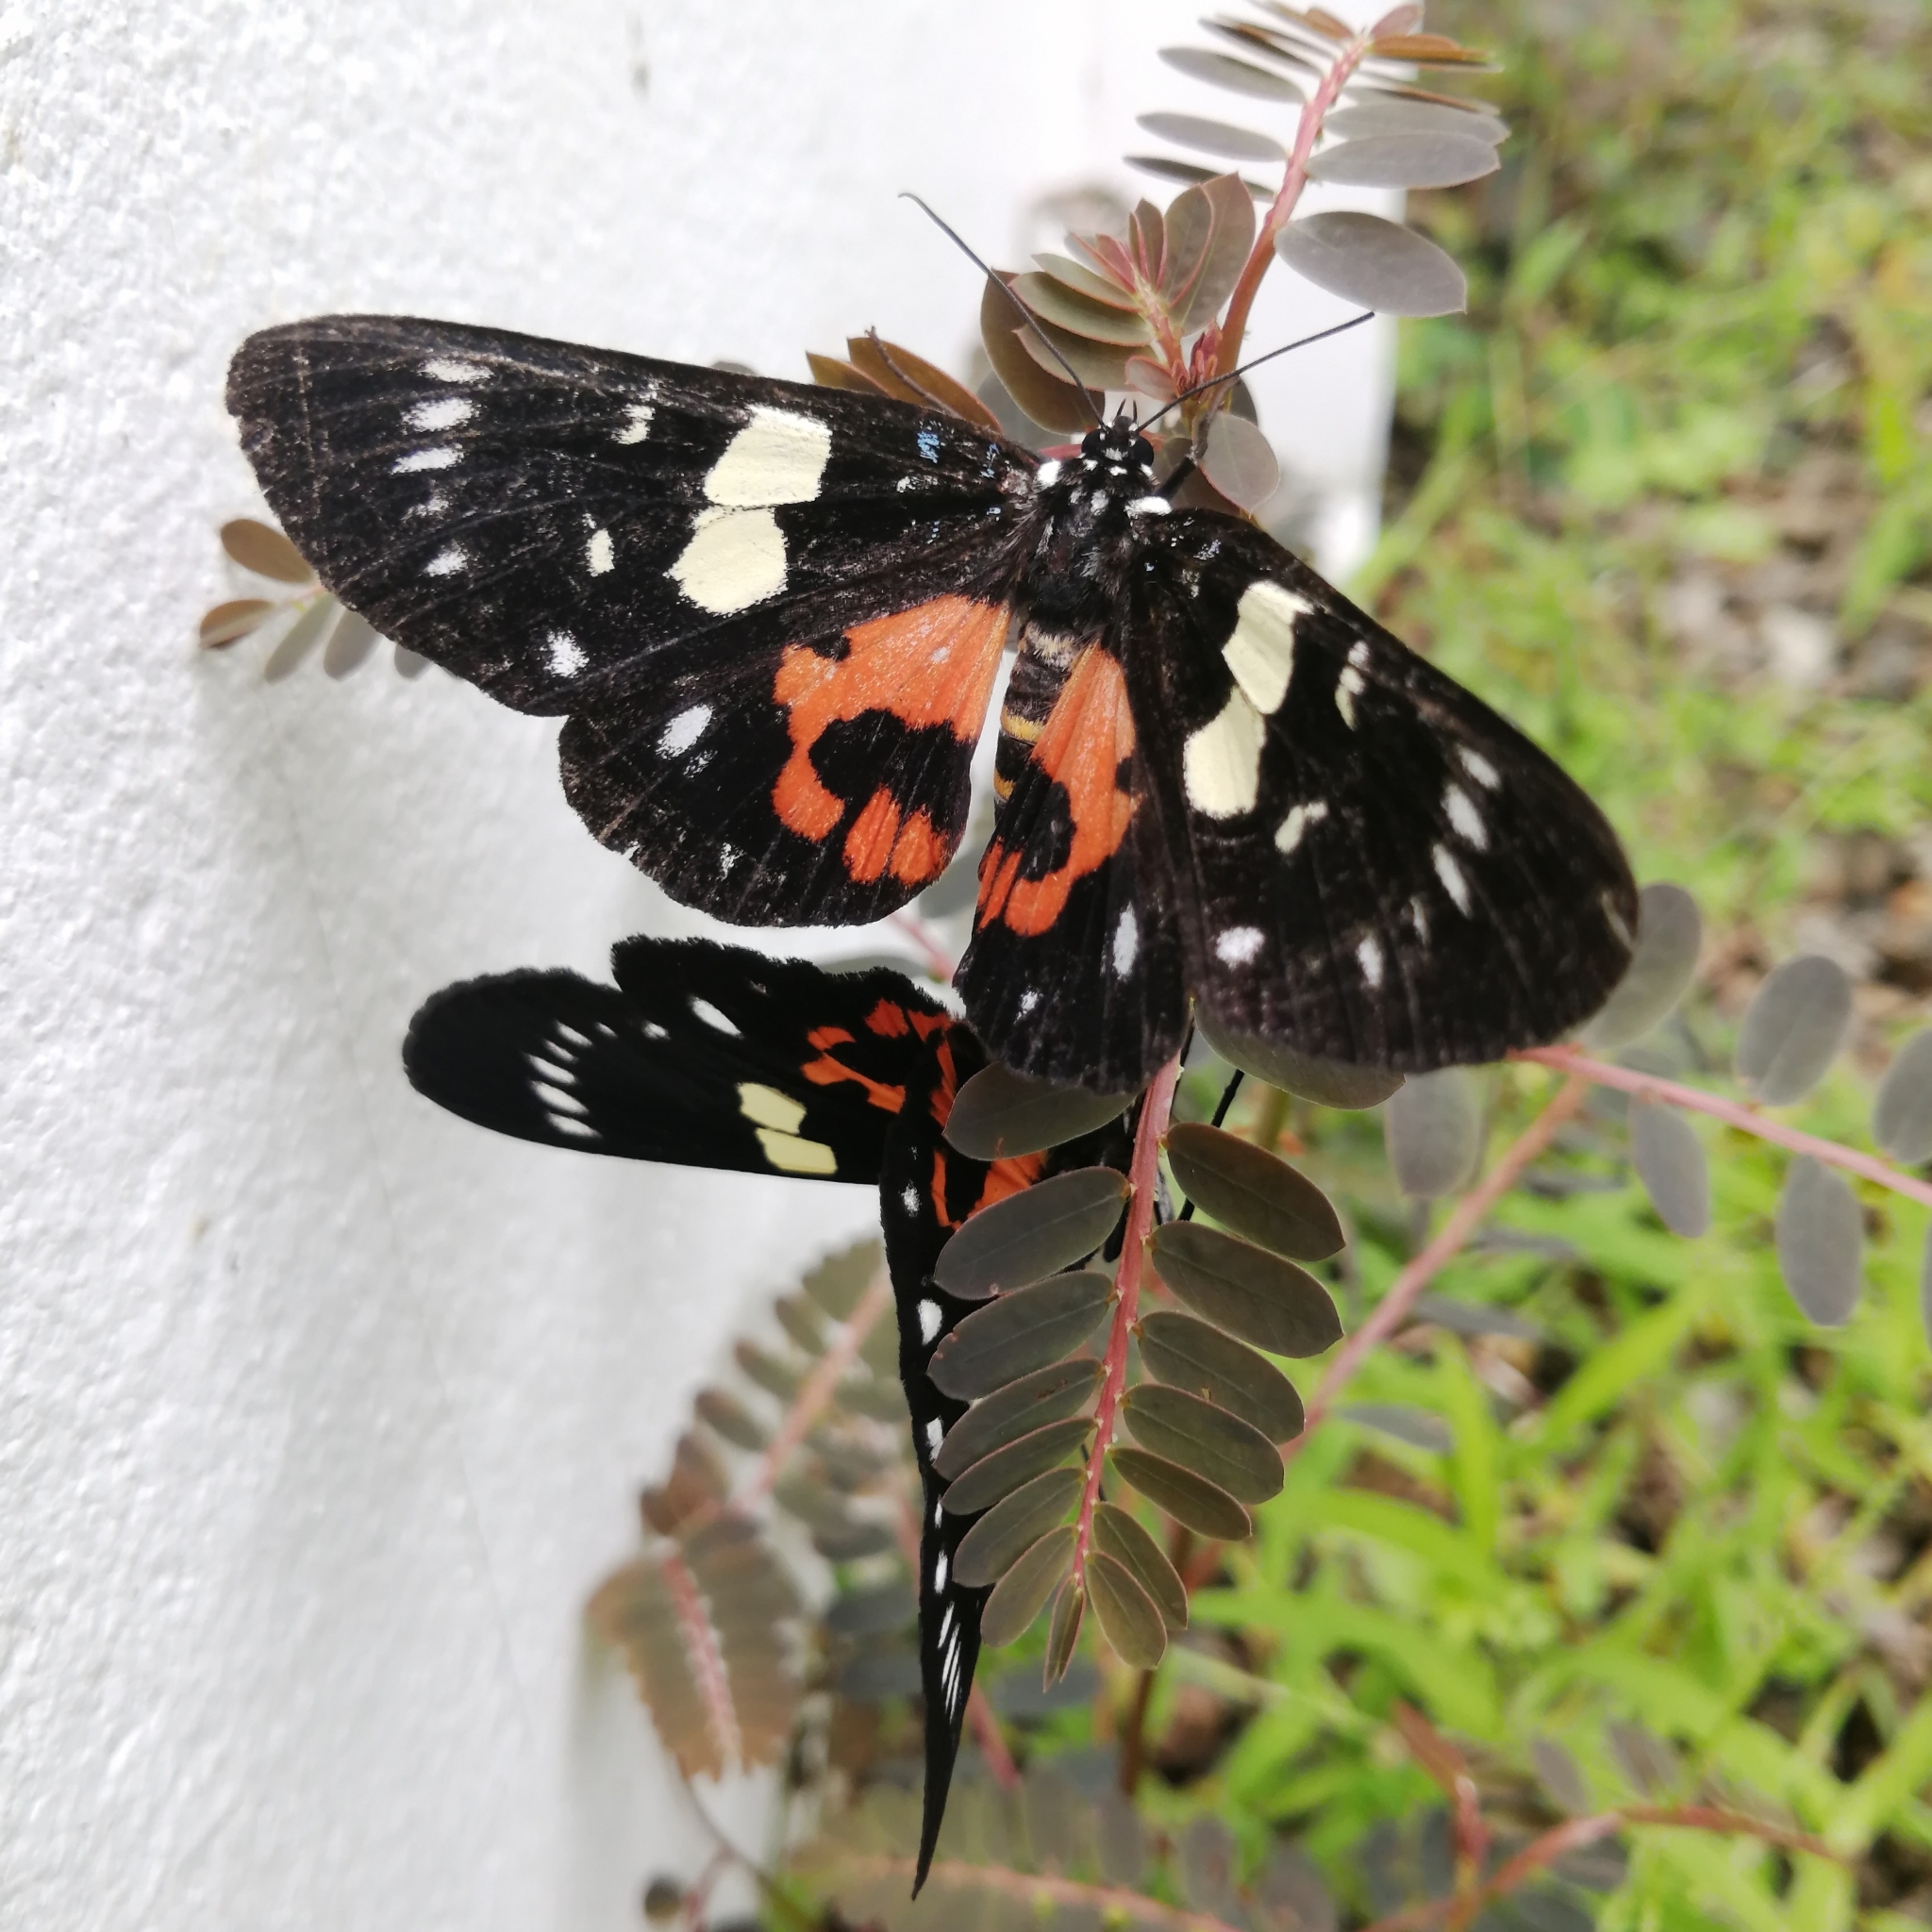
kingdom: Animalia
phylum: Arthropoda
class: Insecta
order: Lepidoptera
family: Noctuidae
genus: Episteme
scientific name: Episteme latimargo
